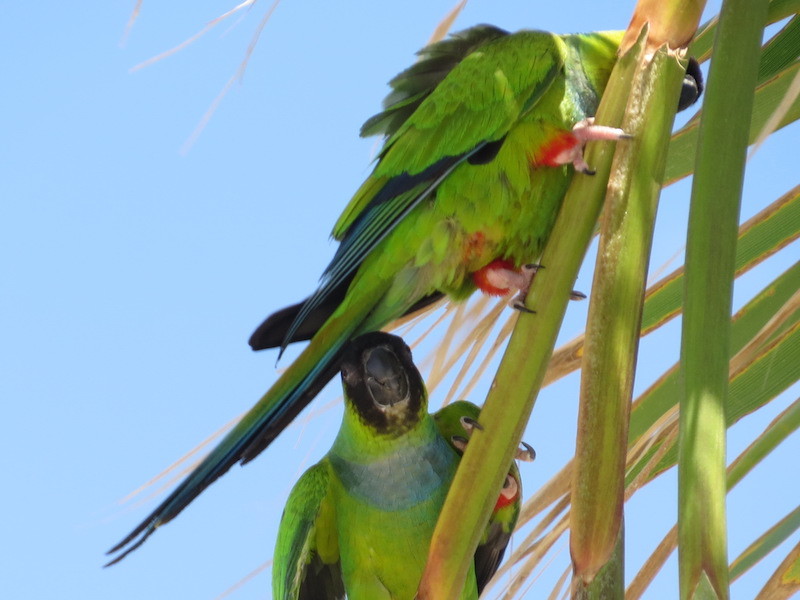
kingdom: Animalia
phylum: Chordata
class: Aves
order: Psittaciformes
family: Psittacidae
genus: Nandayus
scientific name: Nandayus nenday
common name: Nanday parakeet
